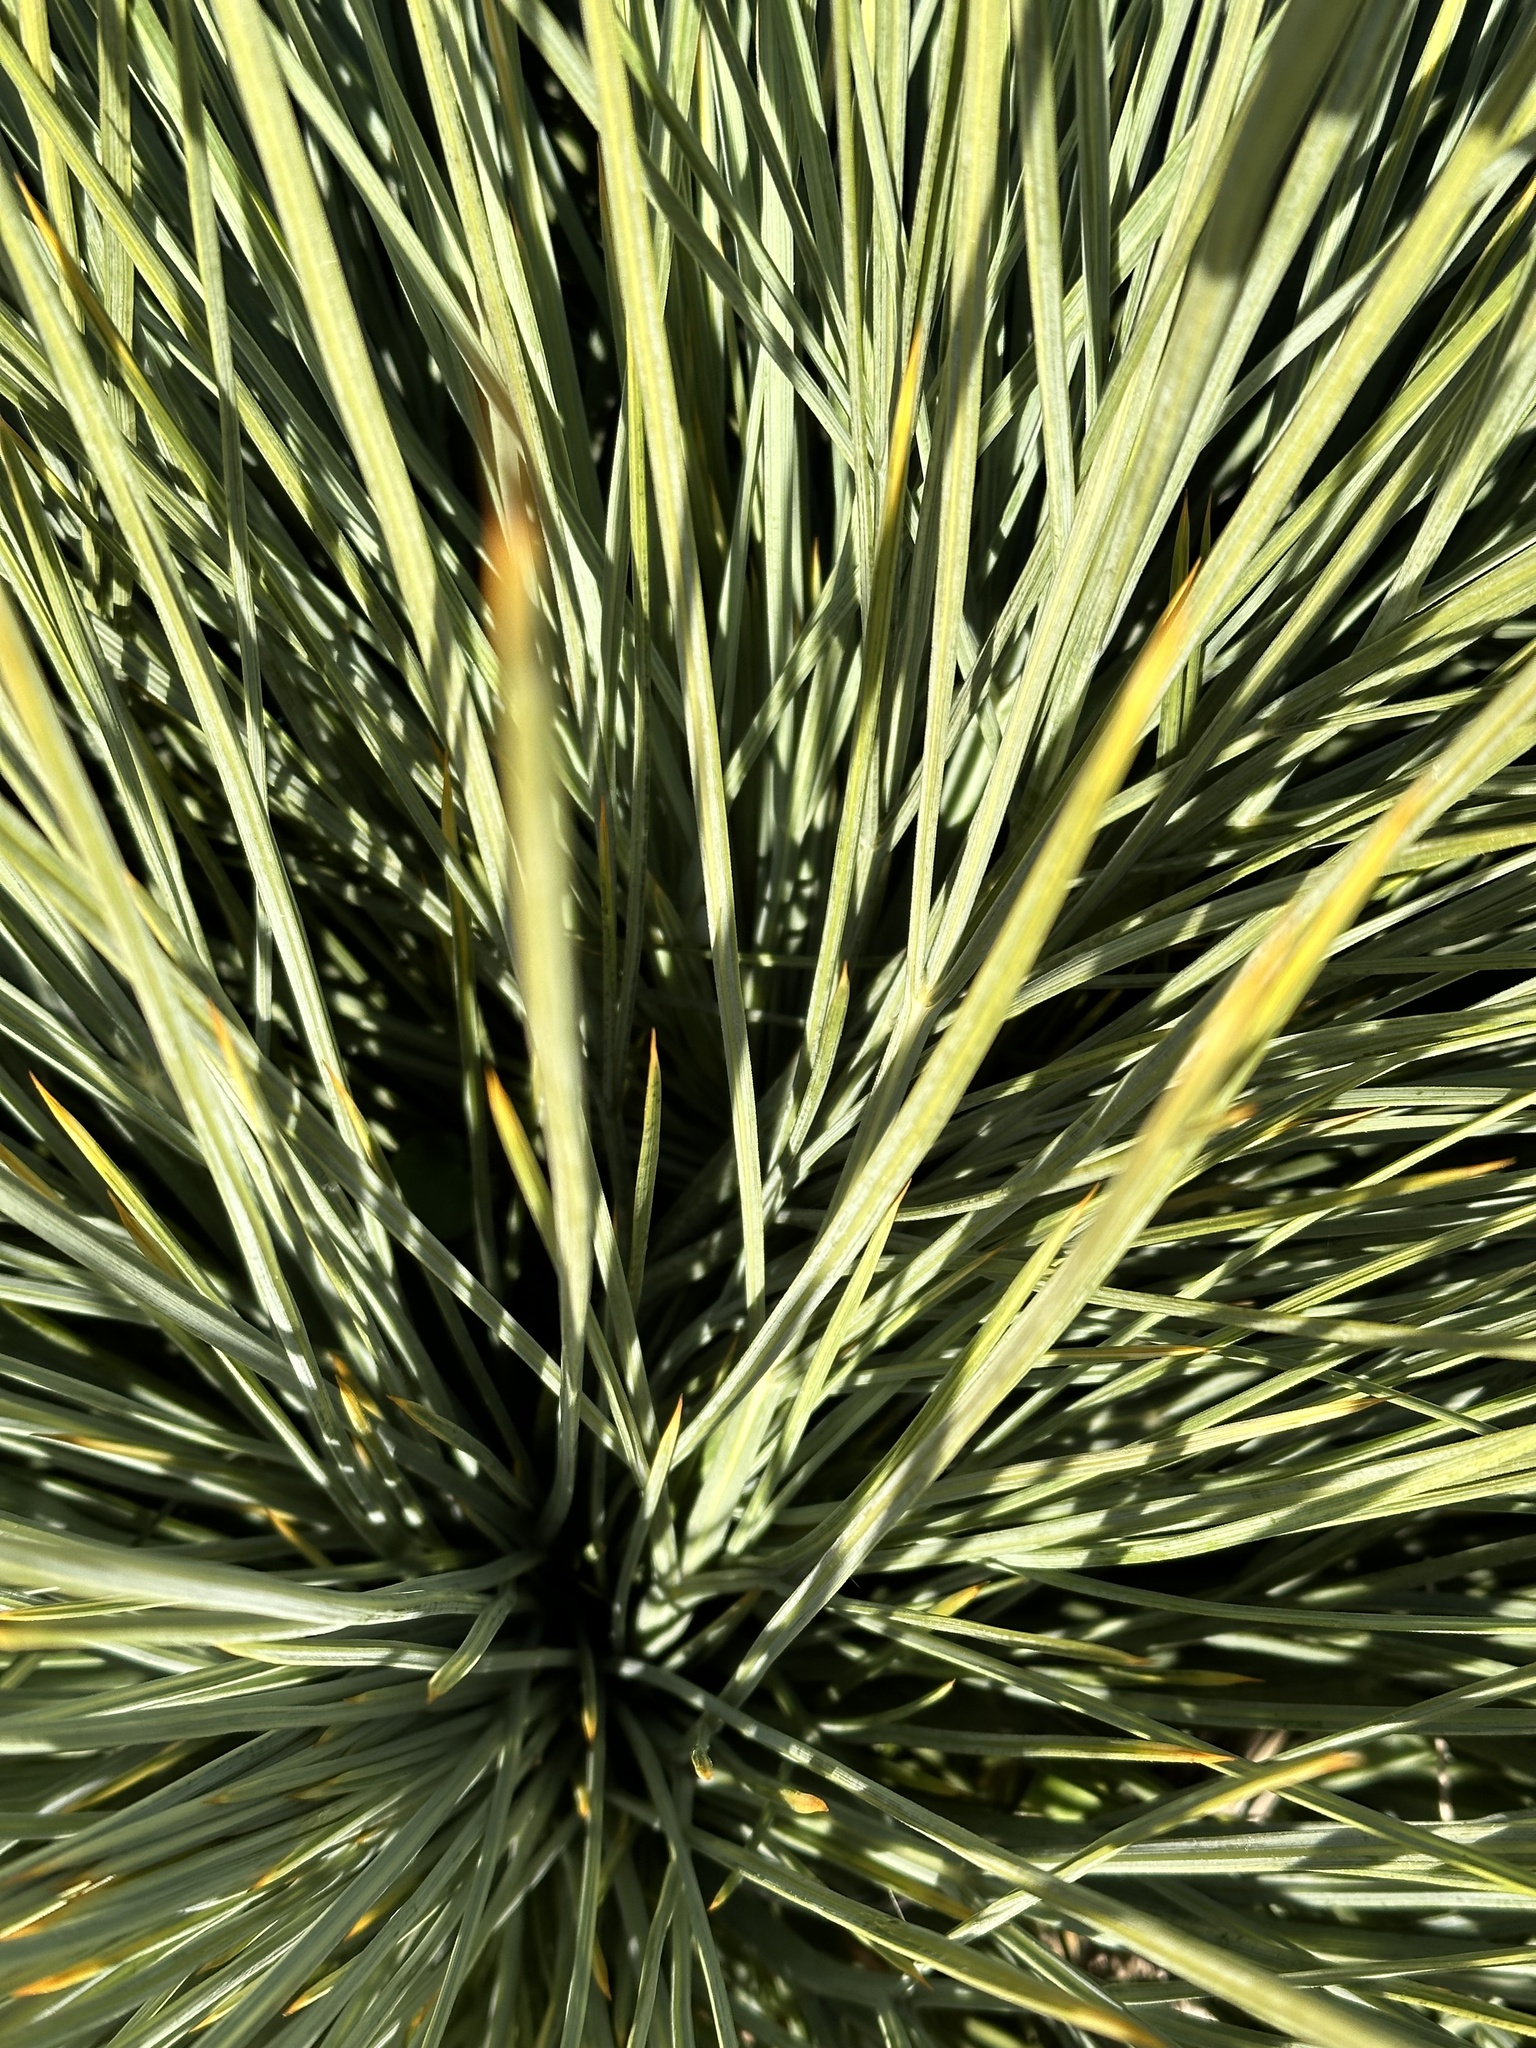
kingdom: Plantae
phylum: Tracheophyta
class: Magnoliopsida
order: Apiales
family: Apiaceae
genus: Aciphylla
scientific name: Aciphylla squarrosa
